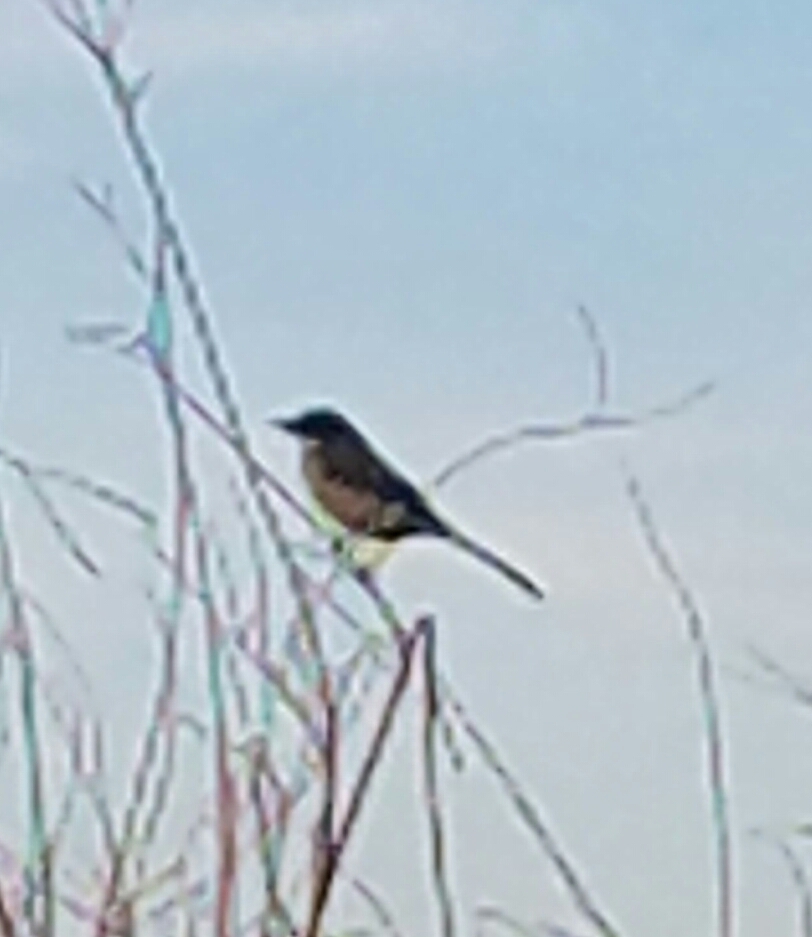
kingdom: Animalia
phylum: Chordata
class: Aves
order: Passeriformes
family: Corvidae
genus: Aphelocoma
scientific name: Aphelocoma californica
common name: California scrub-jay
